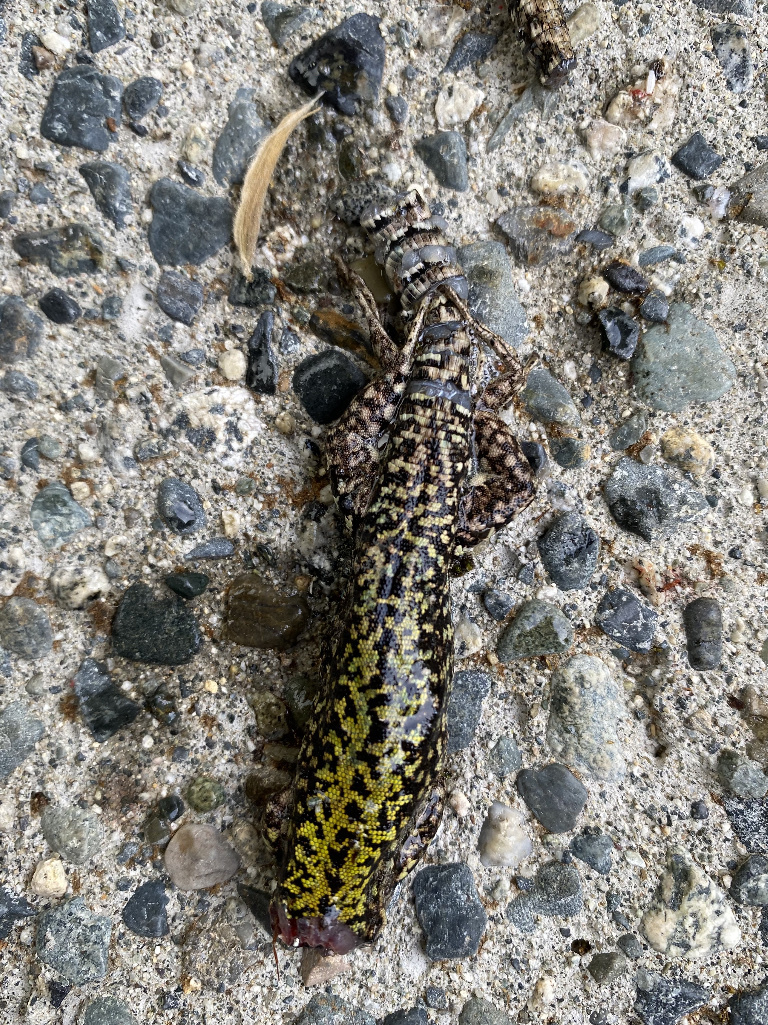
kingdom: Animalia
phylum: Chordata
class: Squamata
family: Lacertidae
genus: Podarcis
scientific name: Podarcis muralis
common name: Common wall lizard
